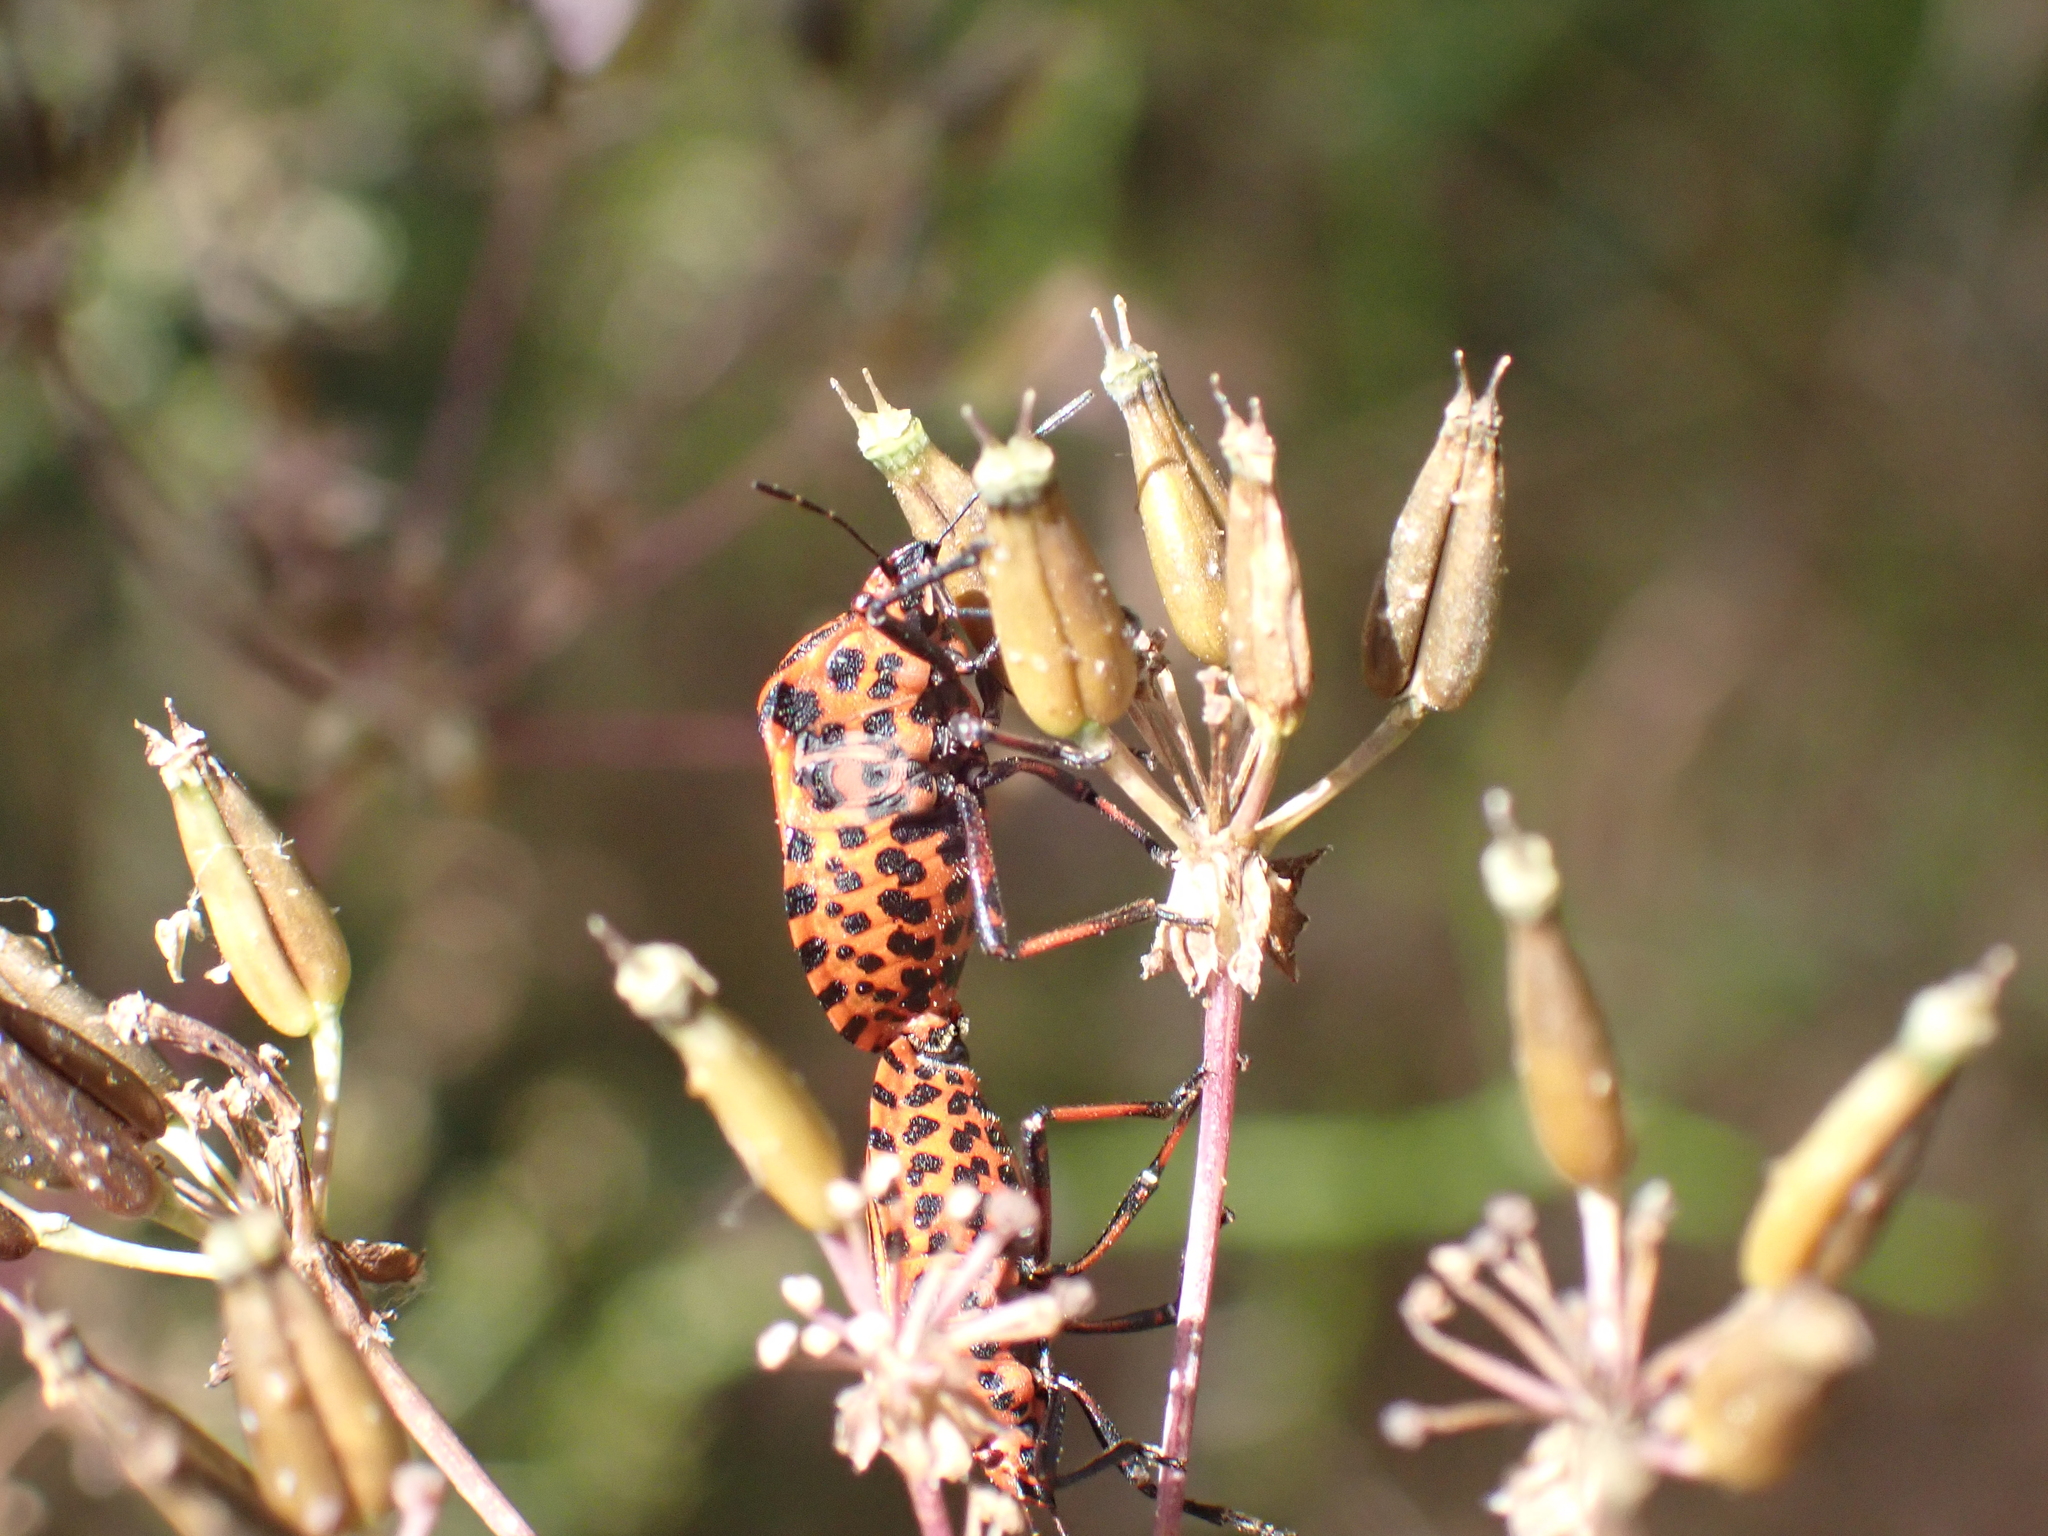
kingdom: Animalia
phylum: Arthropoda
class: Insecta
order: Hemiptera
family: Pentatomidae
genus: Graphosoma
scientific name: Graphosoma italicum
